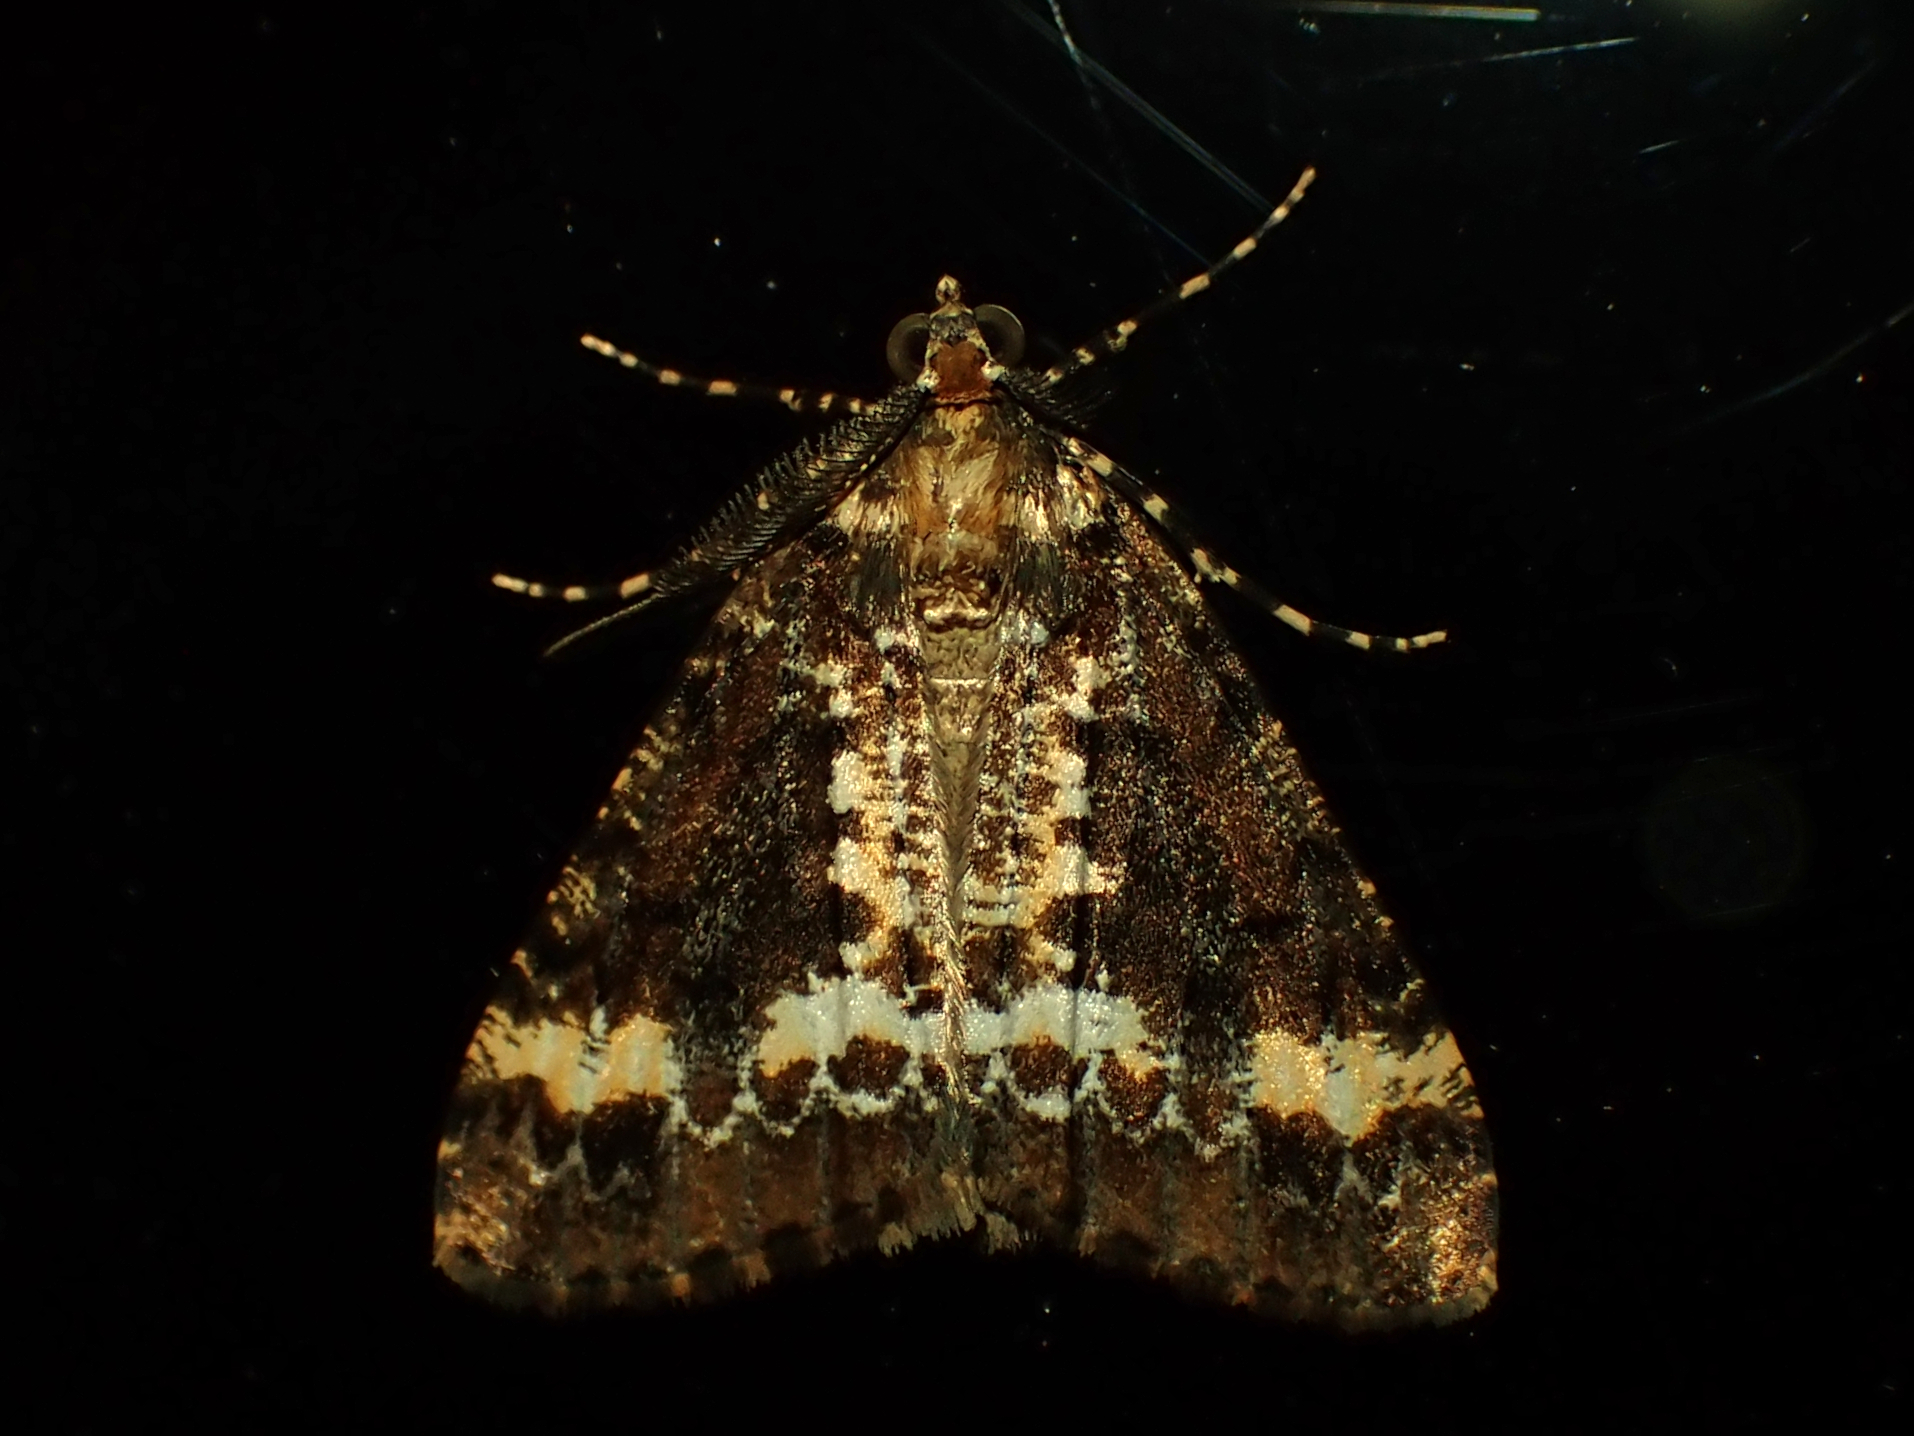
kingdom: Animalia
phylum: Arthropoda
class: Insecta
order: Lepidoptera
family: Geometridae
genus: Pseudocoremia
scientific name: Pseudocoremia leucelaea
